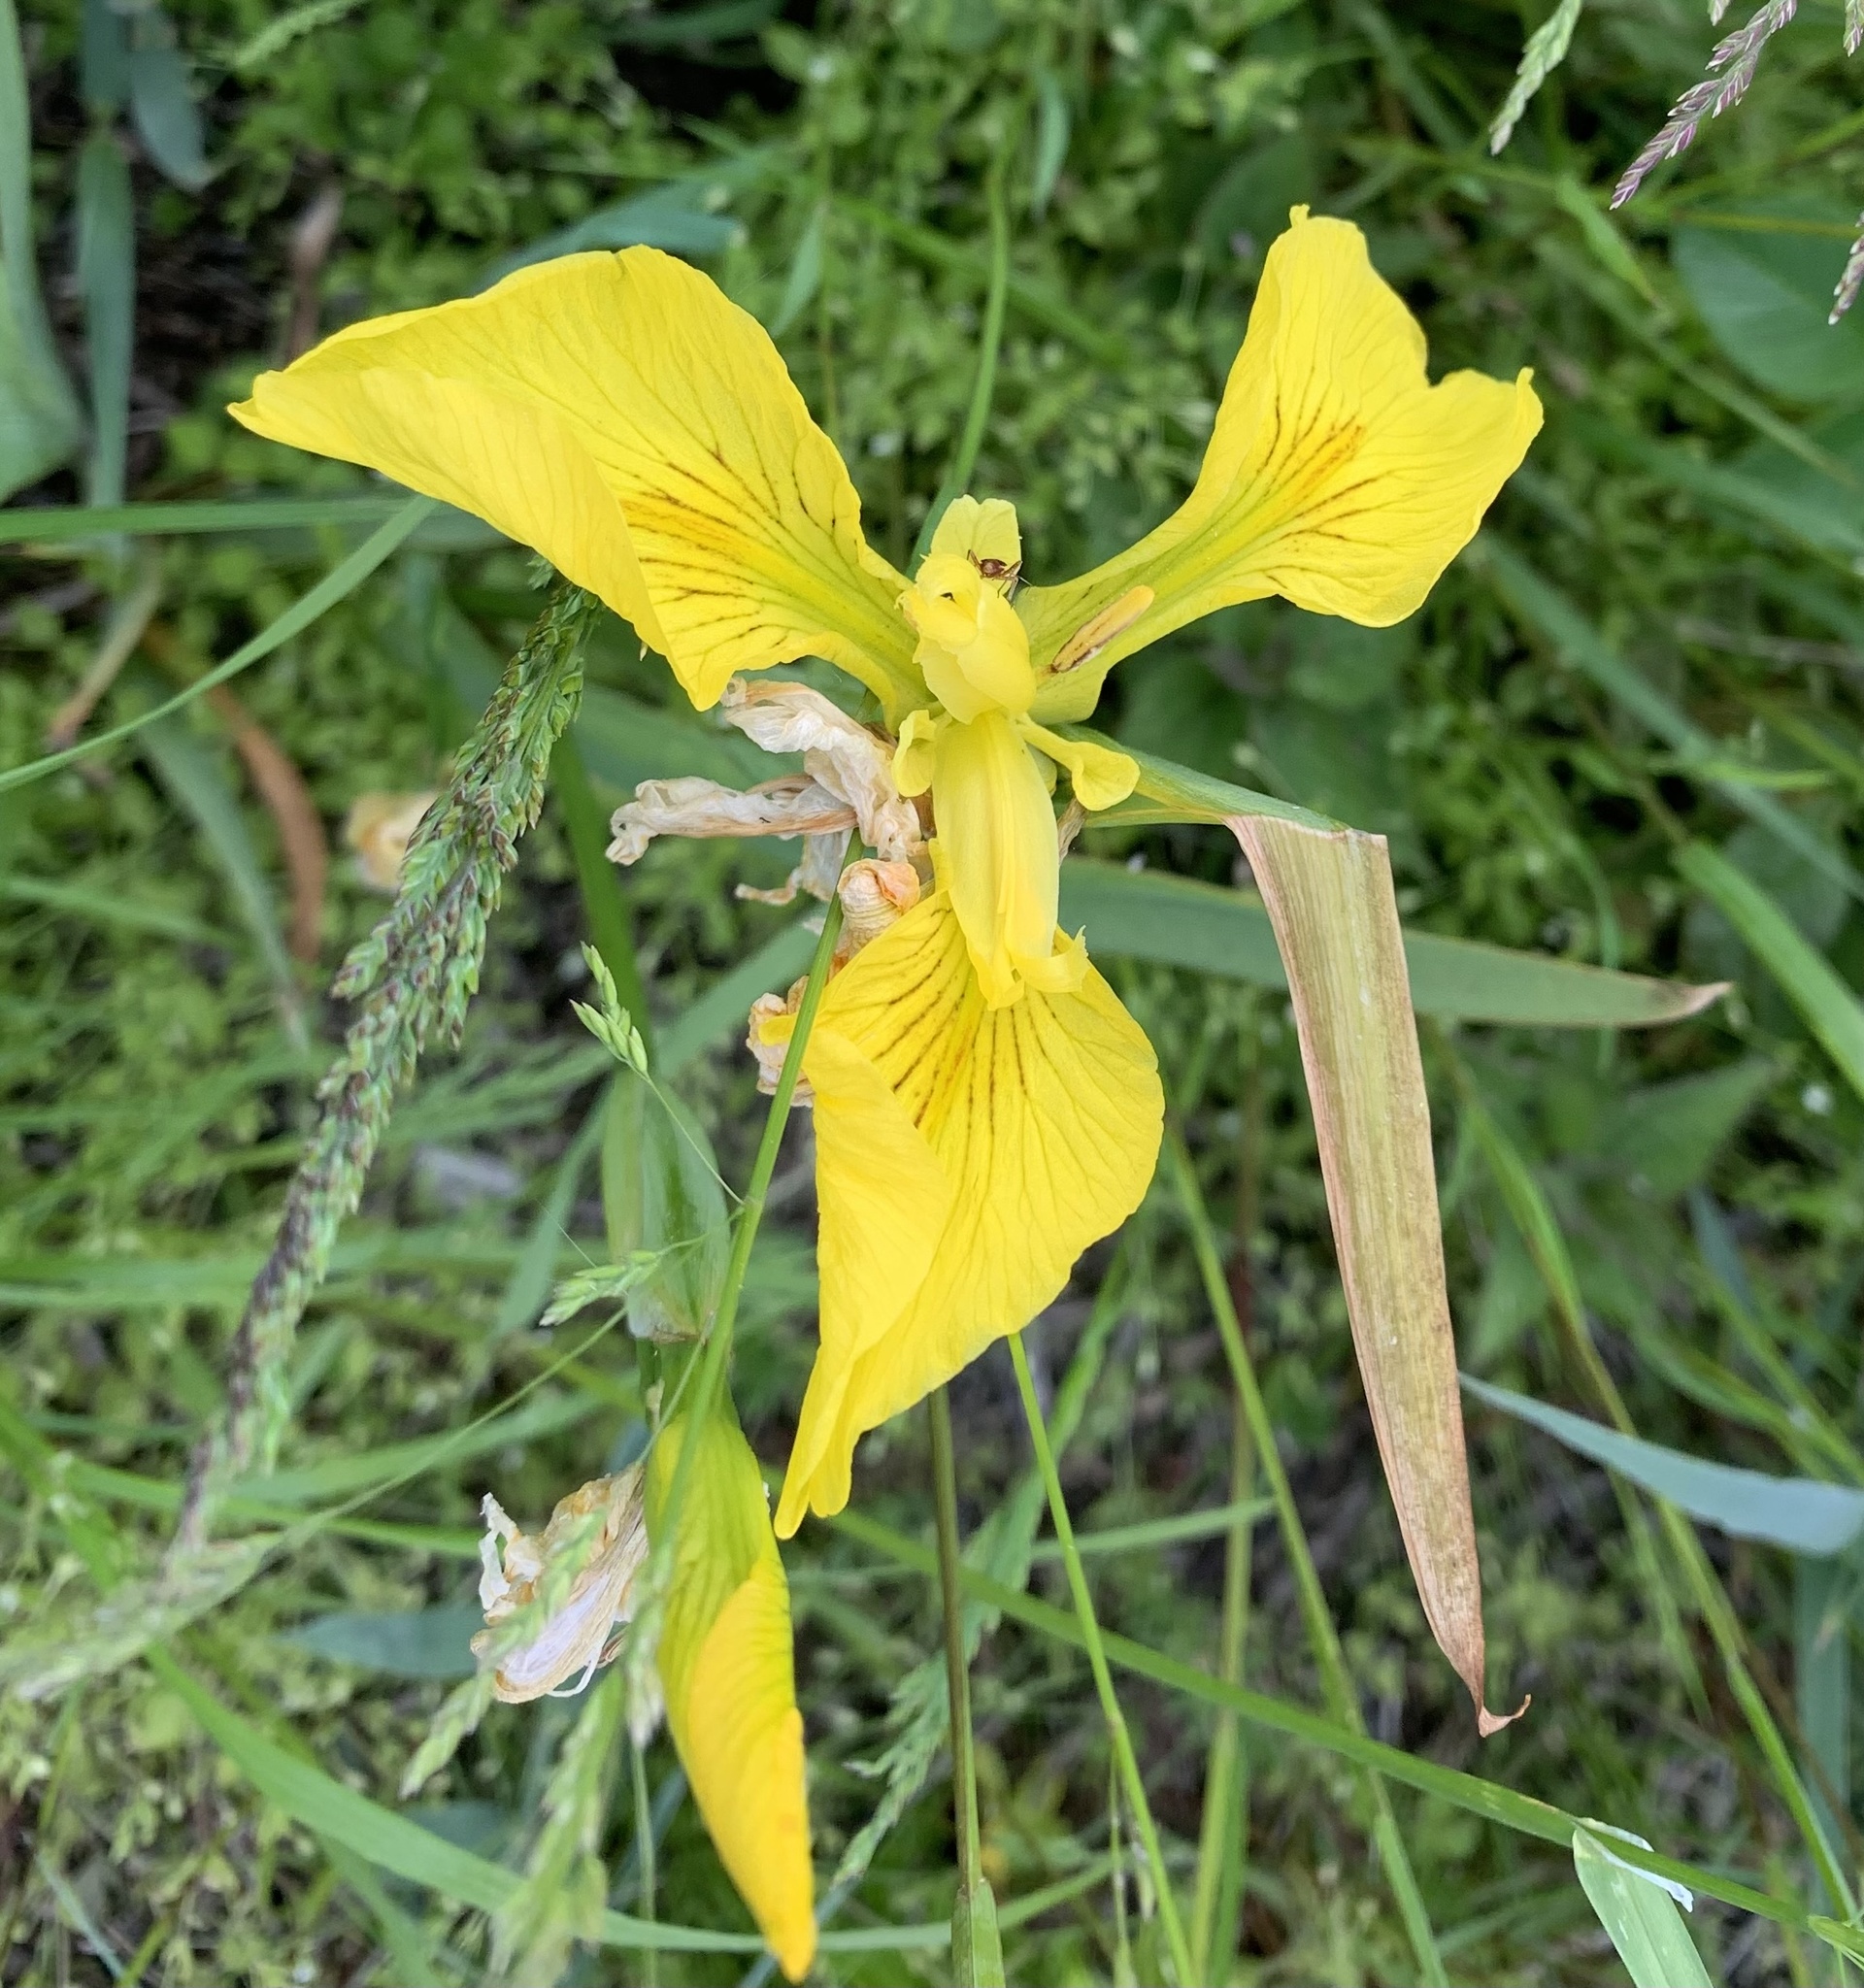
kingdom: Plantae
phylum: Tracheophyta
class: Liliopsida
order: Asparagales
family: Iridaceae
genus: Iris
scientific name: Iris pseudacorus
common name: Yellow flag
